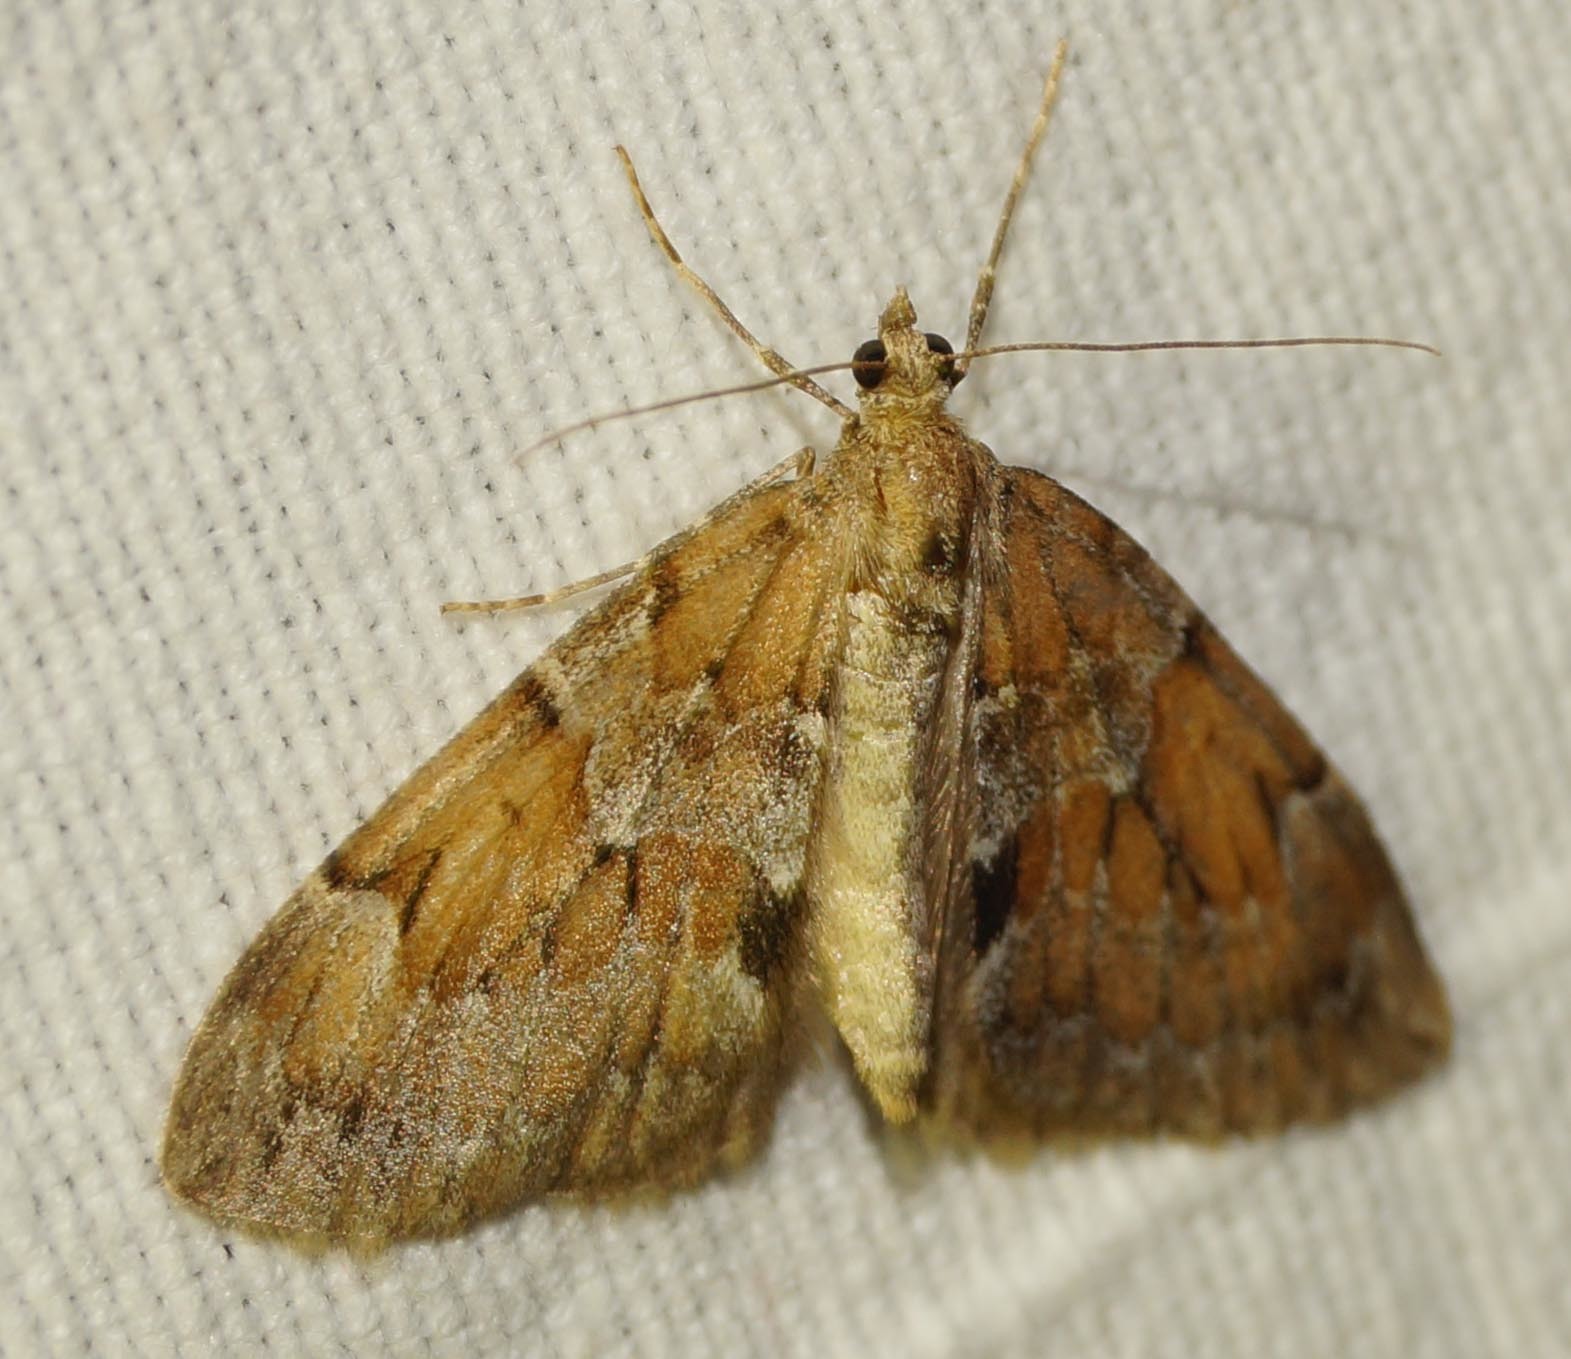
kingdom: Animalia
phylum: Arthropoda
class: Insecta
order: Lepidoptera
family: Geometridae
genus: Thera
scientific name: Thera obeliscata
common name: Grey pine carpet
